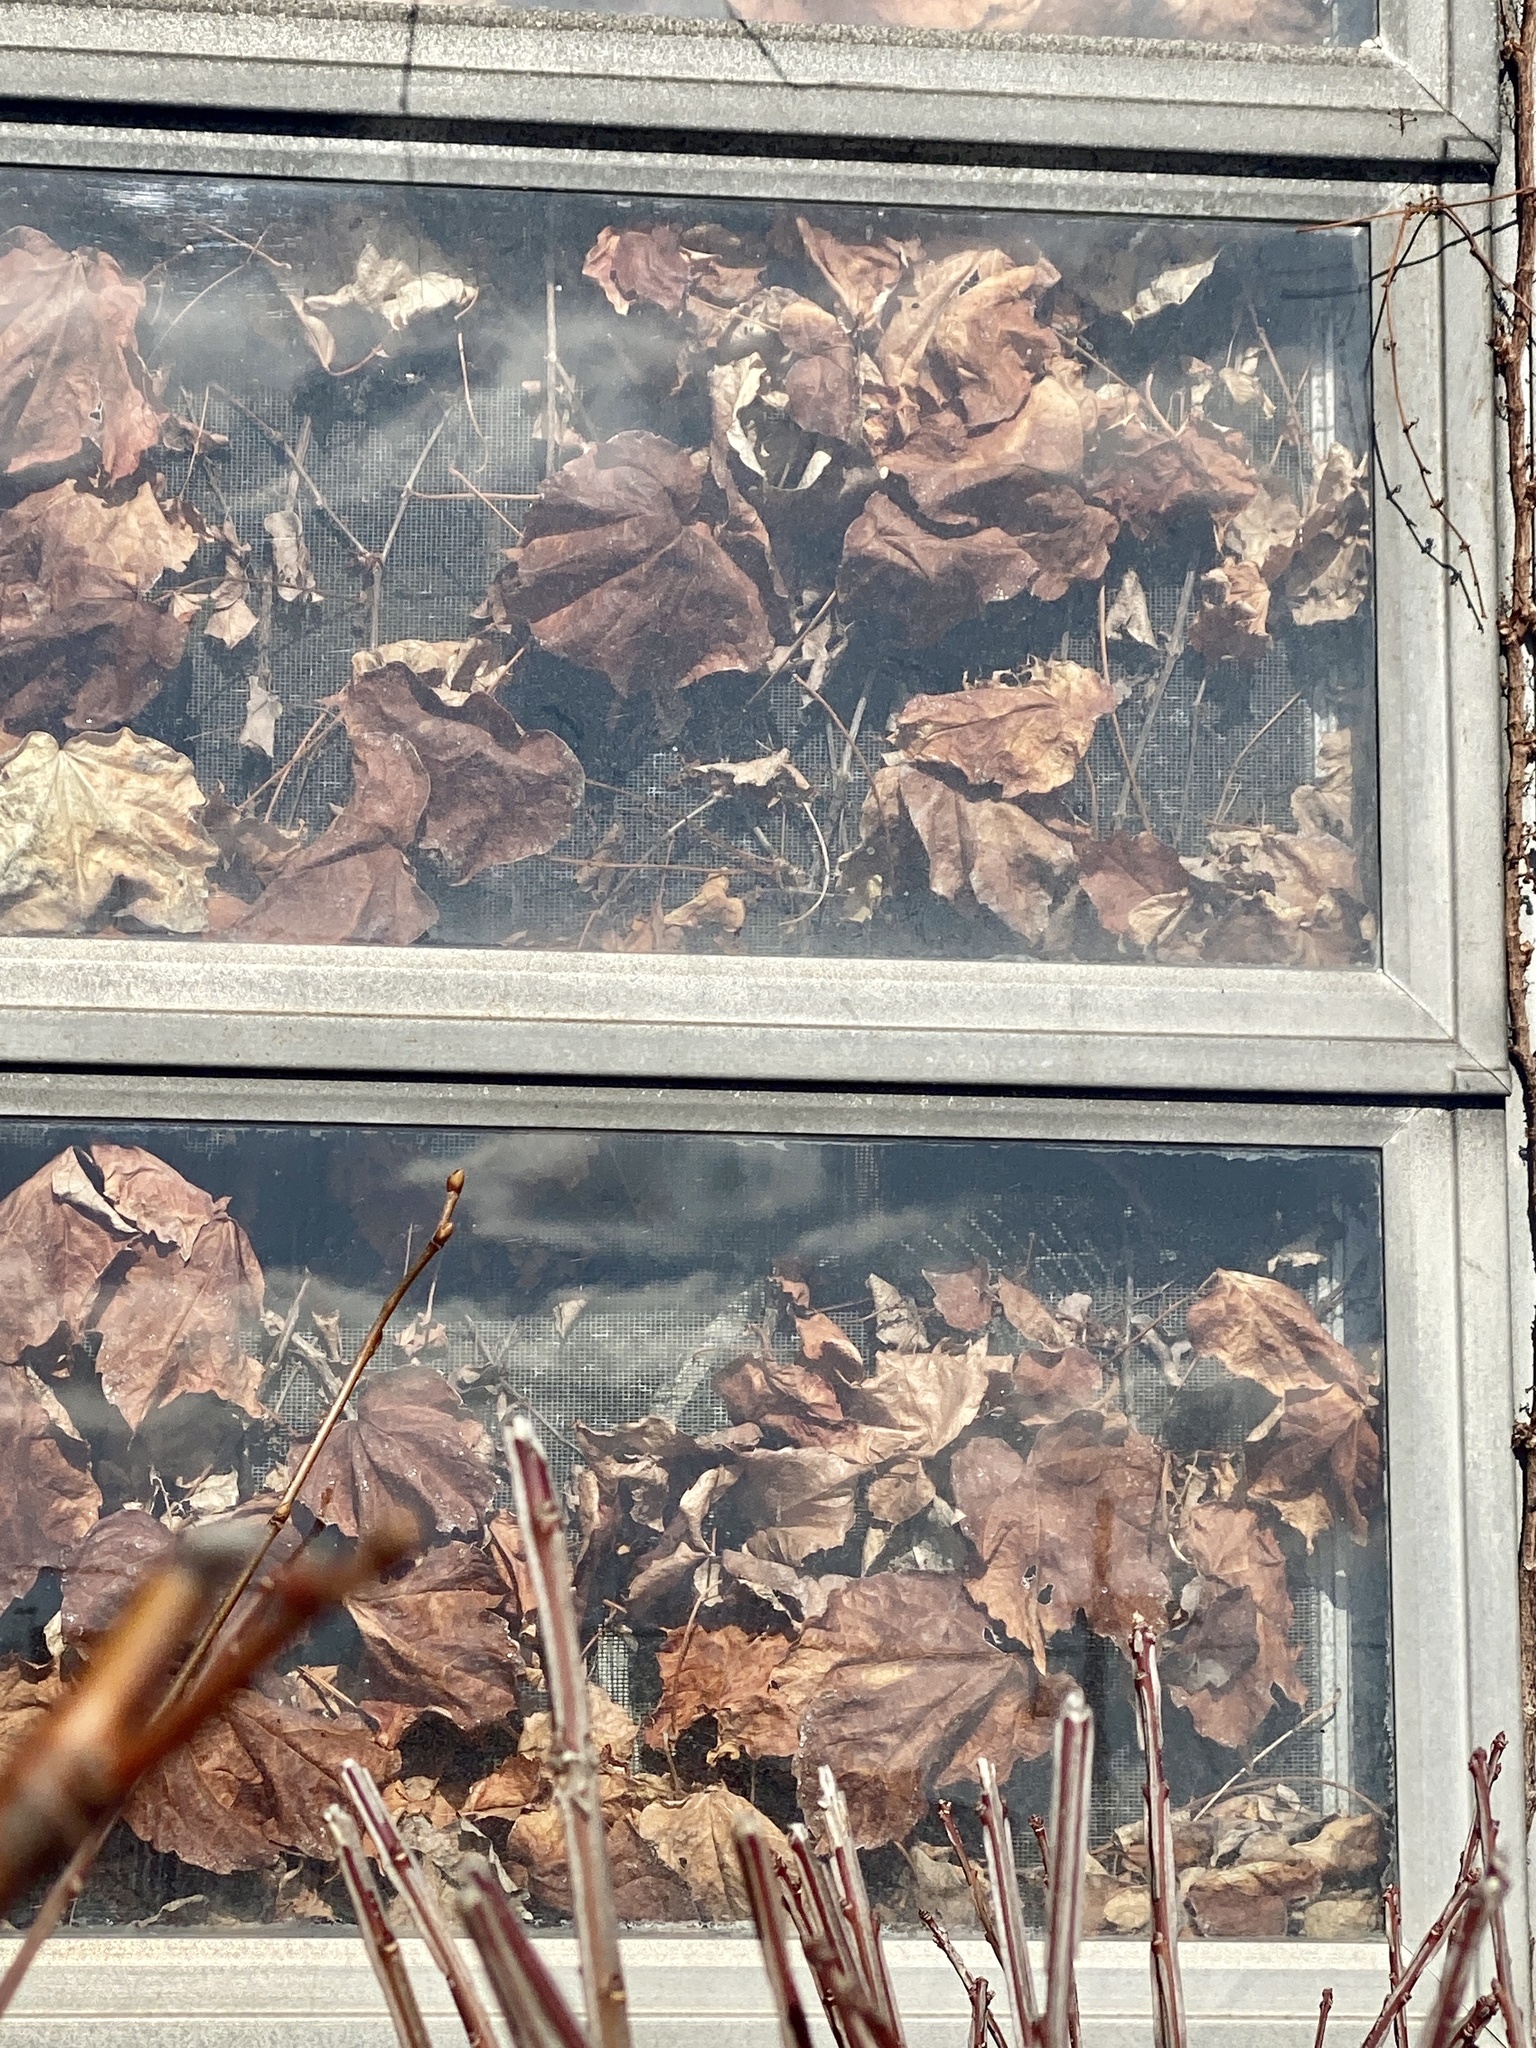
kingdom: Plantae
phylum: Tracheophyta
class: Magnoliopsida
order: Vitales
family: Vitaceae
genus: Parthenocissus
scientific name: Parthenocissus tricuspidata
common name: Boston ivy
